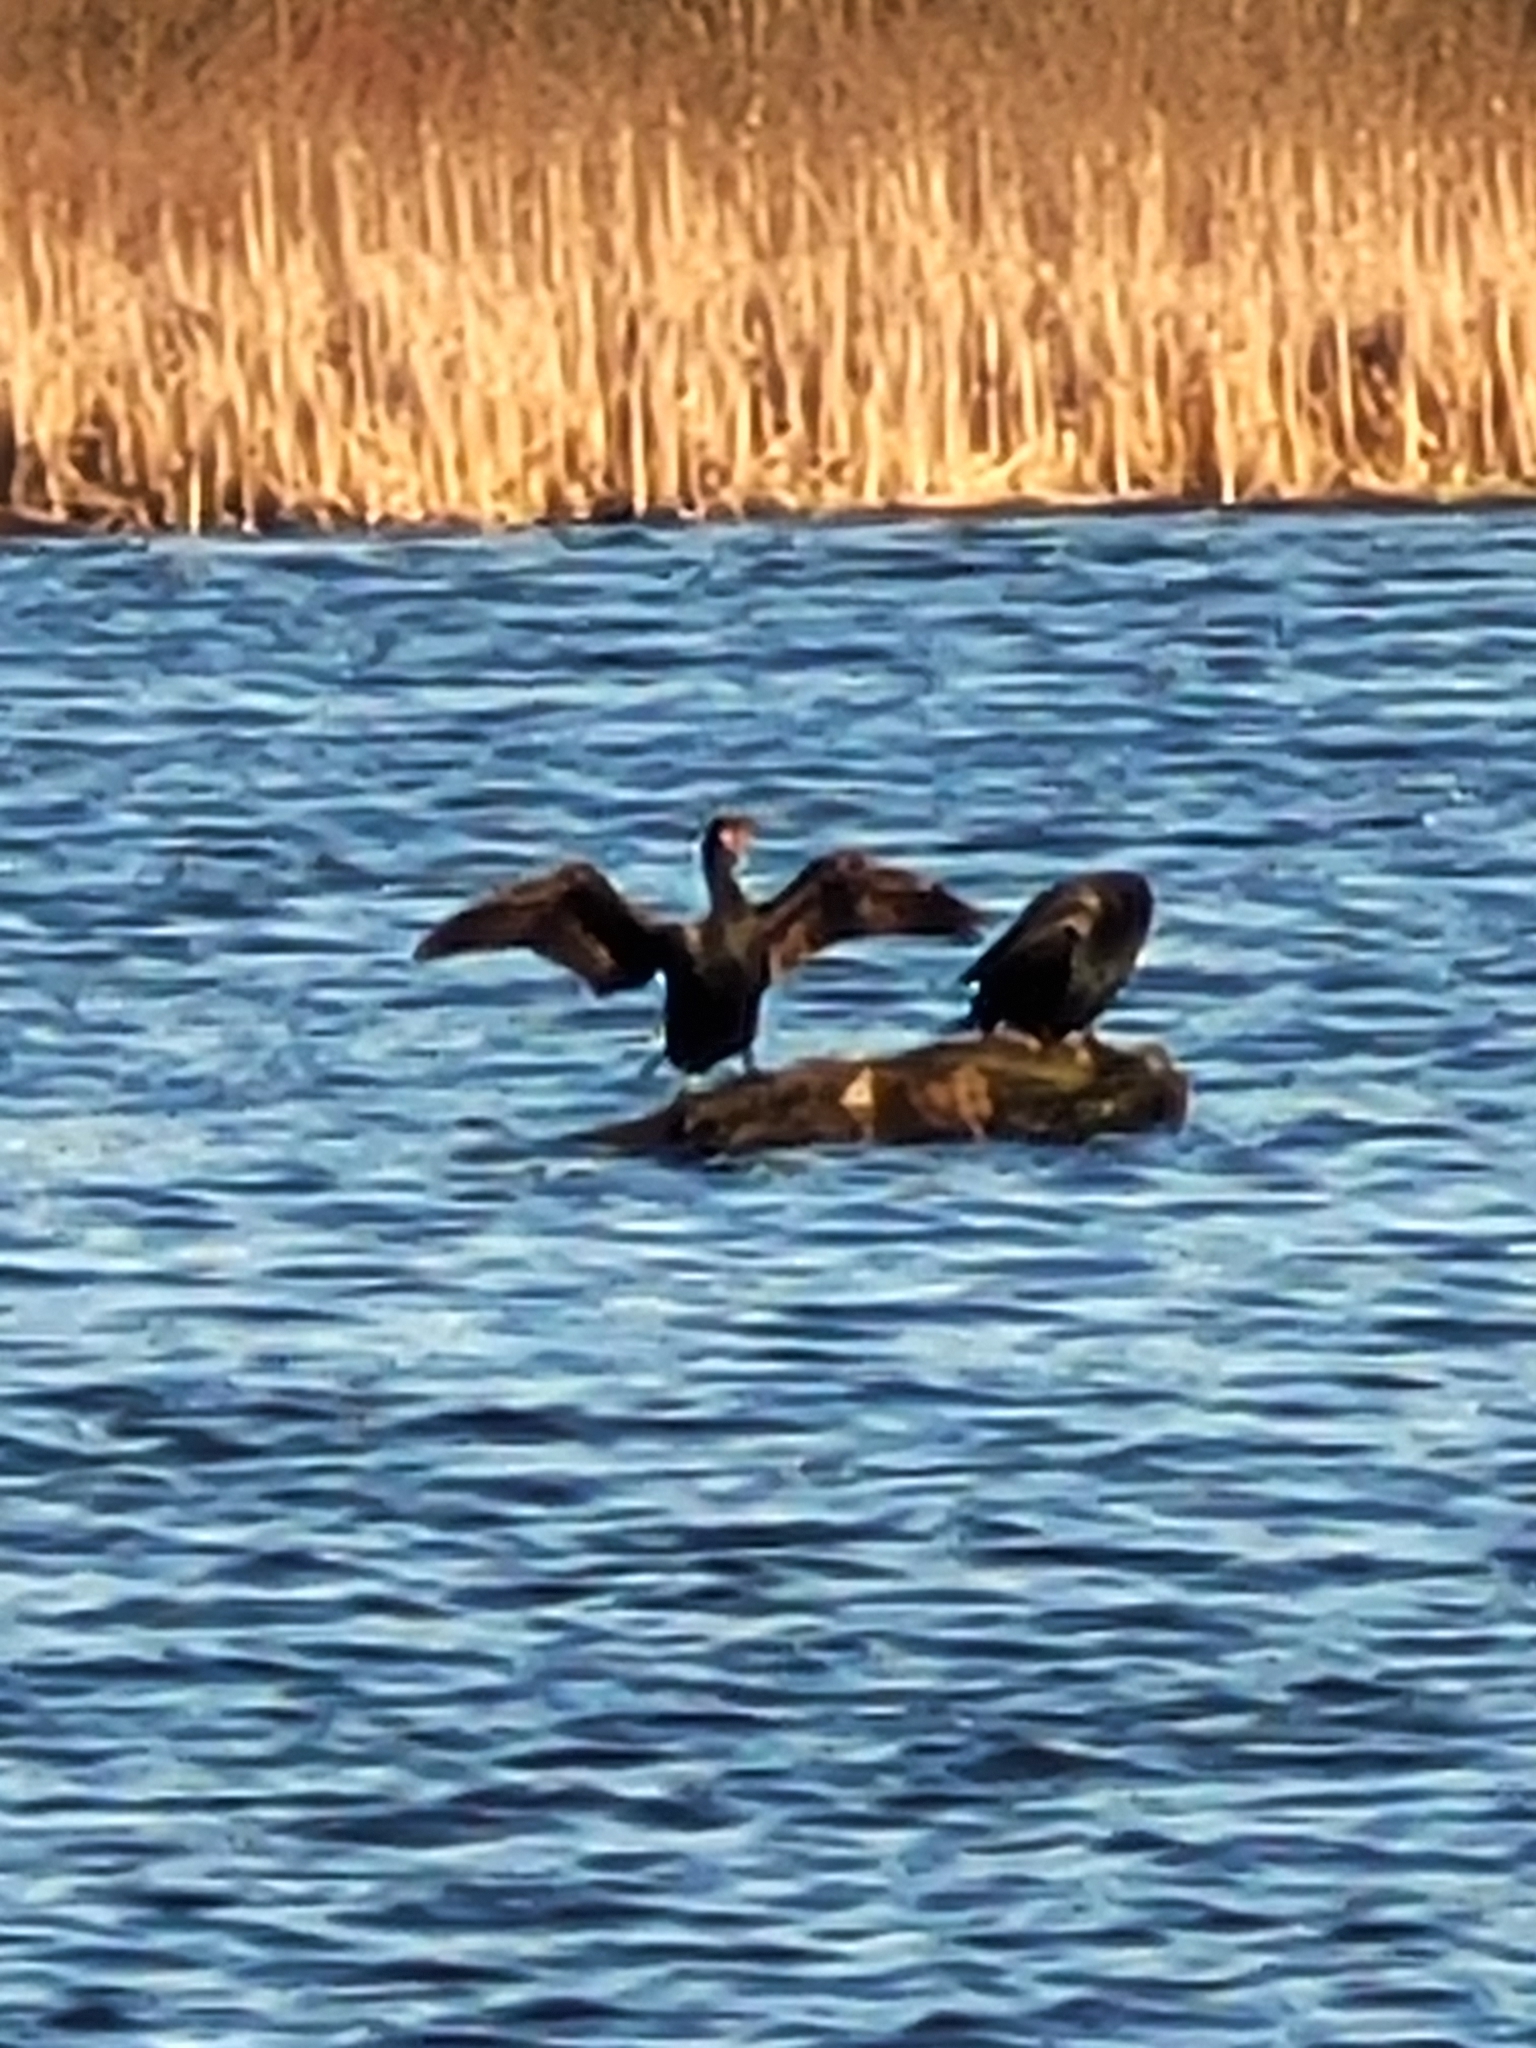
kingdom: Animalia
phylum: Chordata
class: Aves
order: Suliformes
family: Phalacrocoracidae
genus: Phalacrocorax
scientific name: Phalacrocorax auritus
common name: Double-crested cormorant
